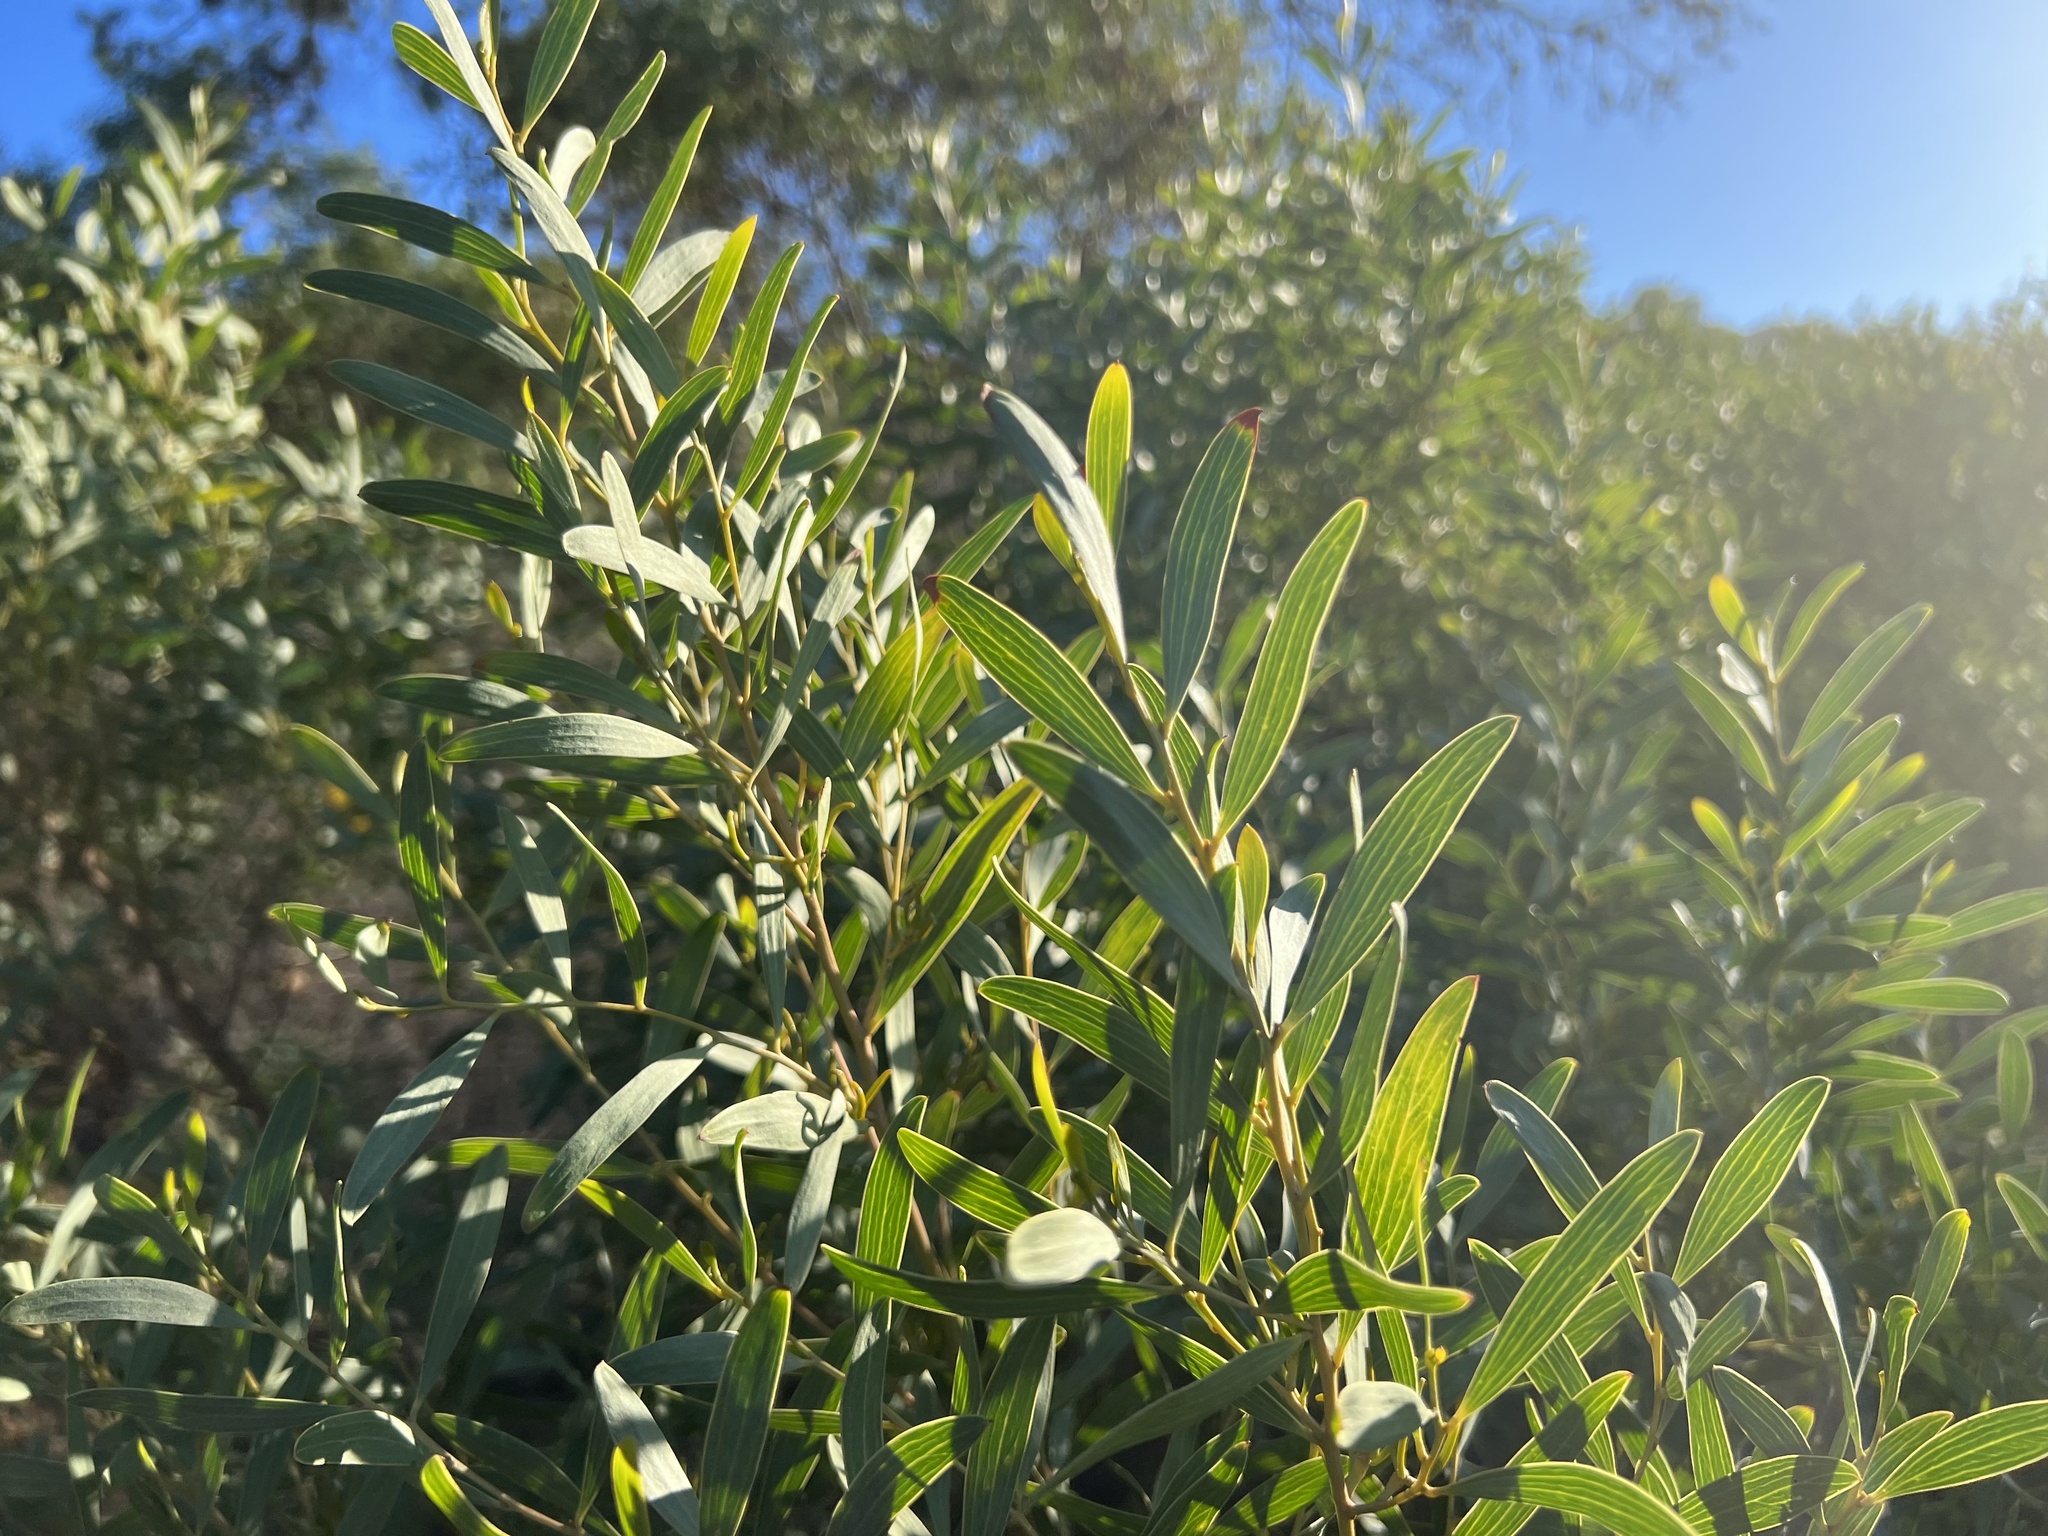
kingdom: Plantae
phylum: Tracheophyta
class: Magnoliopsida
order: Fabales
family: Fabaceae
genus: Acacia
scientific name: Acacia longifolia
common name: Sydney golden wattle
